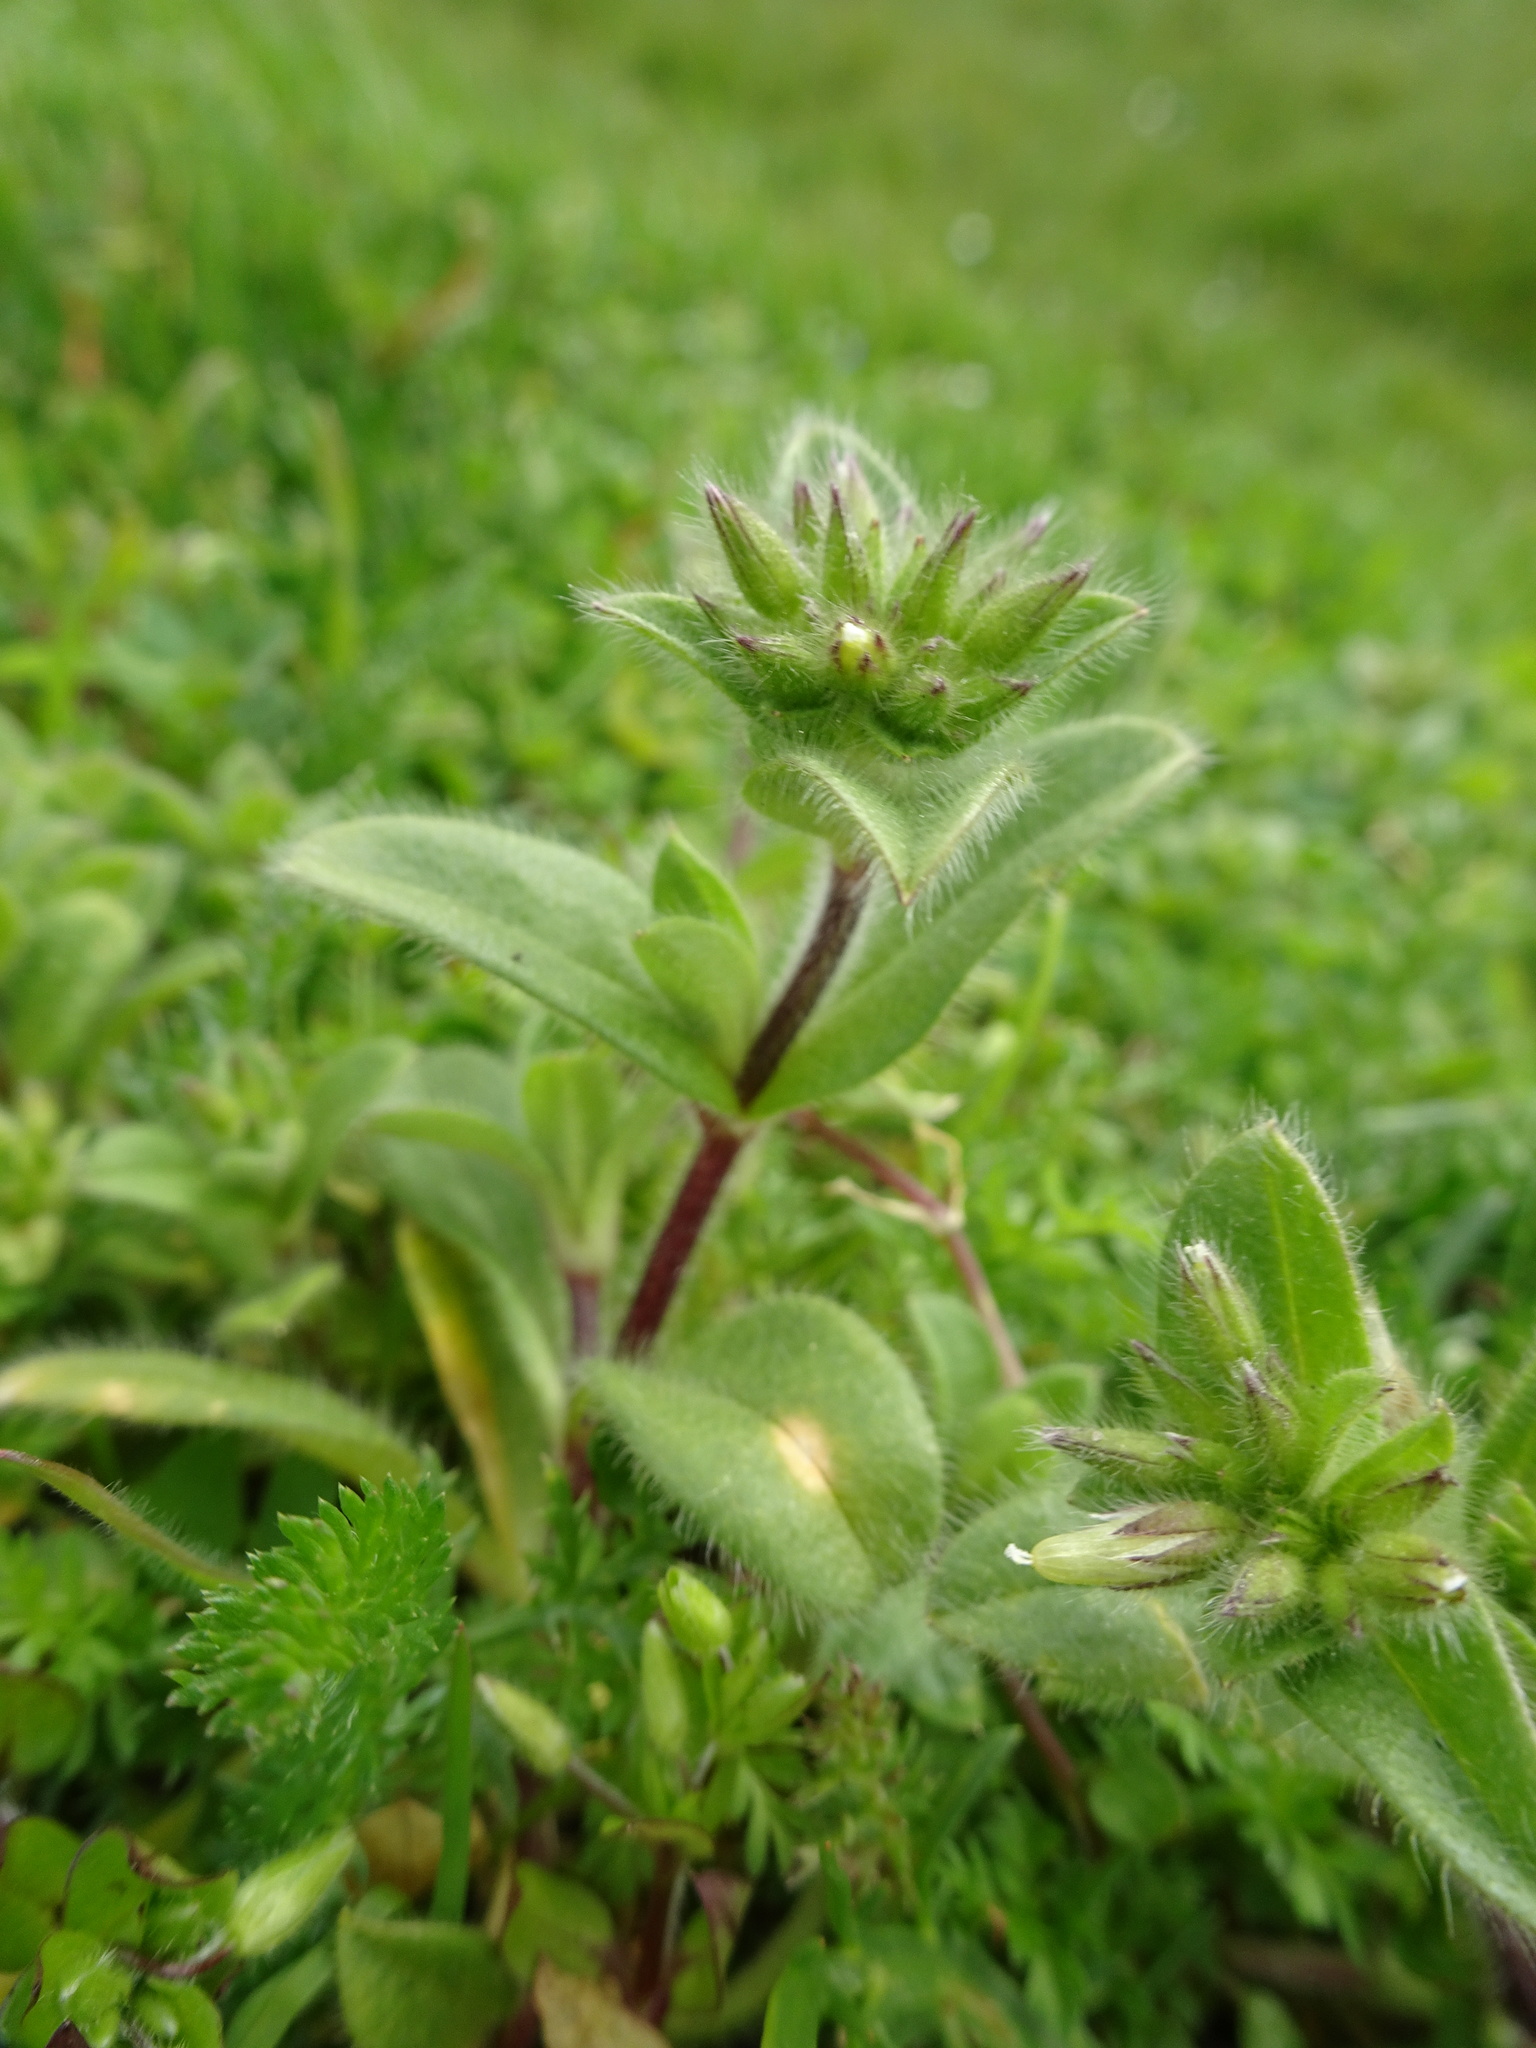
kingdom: Plantae
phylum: Tracheophyta
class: Magnoliopsida
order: Caryophyllales
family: Caryophyllaceae
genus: Cerastium
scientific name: Cerastium glomeratum
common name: Sticky chickweed
